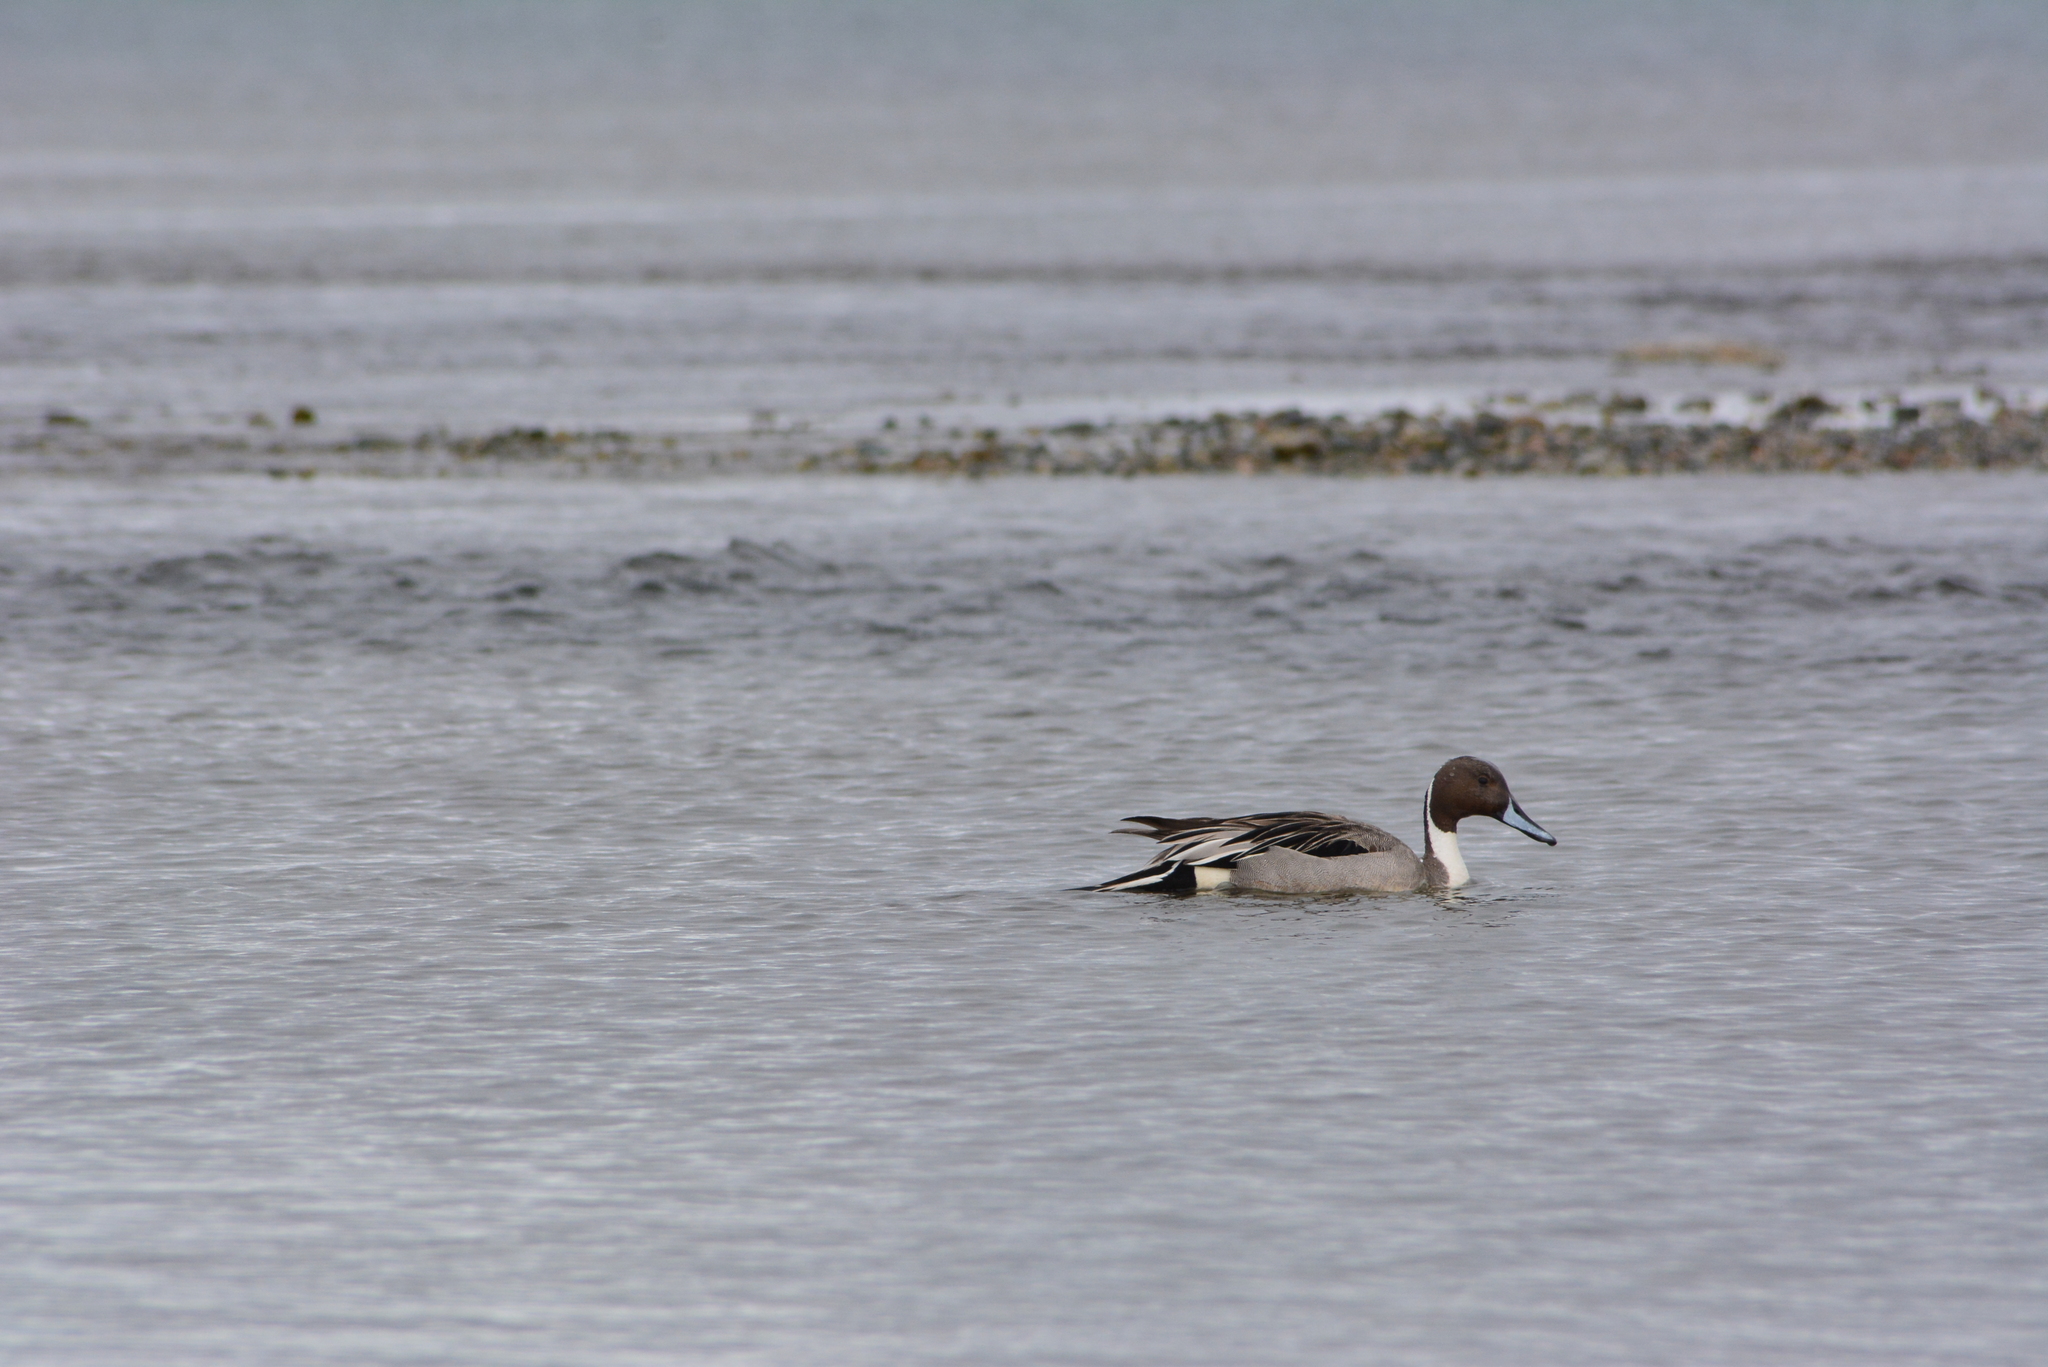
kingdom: Animalia
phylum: Chordata
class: Aves
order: Anseriformes
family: Anatidae
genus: Anas
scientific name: Anas acuta
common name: Northern pintail
